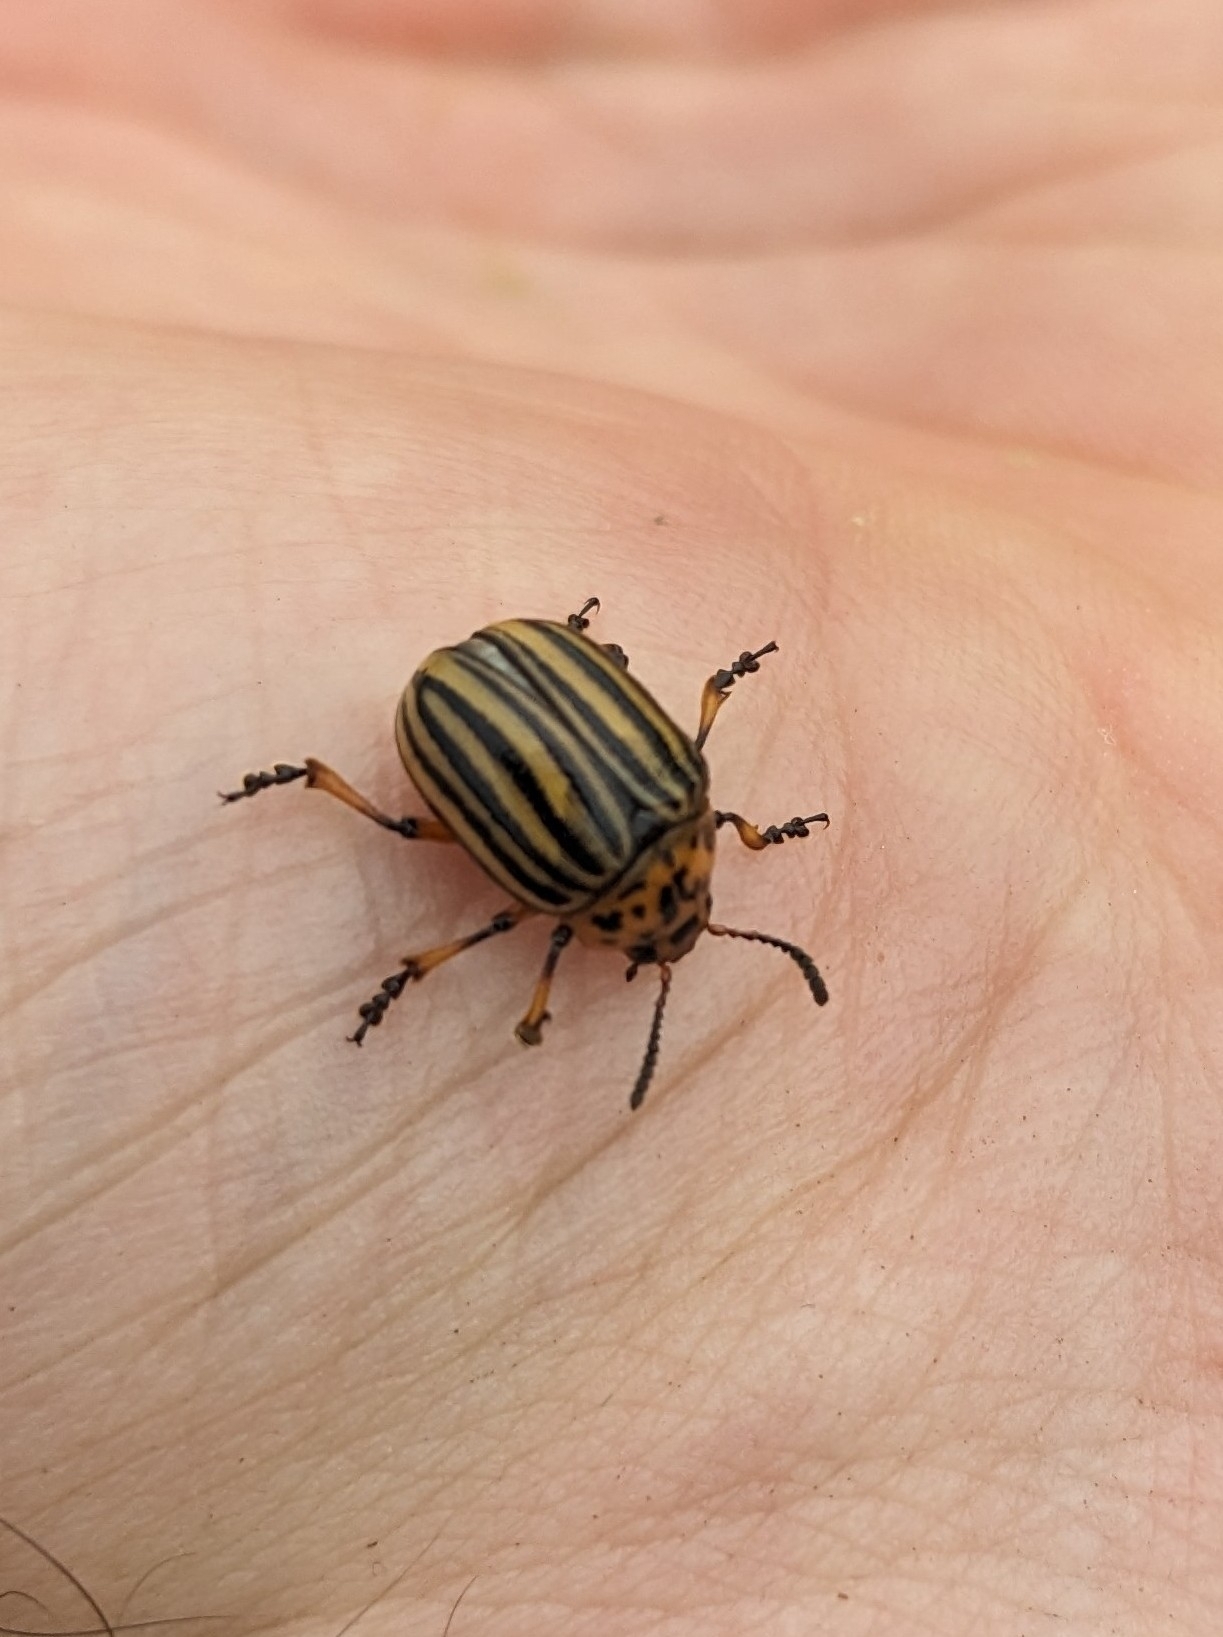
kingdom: Animalia
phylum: Arthropoda
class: Insecta
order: Coleoptera
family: Chrysomelidae
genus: Leptinotarsa
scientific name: Leptinotarsa decemlineata
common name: Colorado potato beetle
